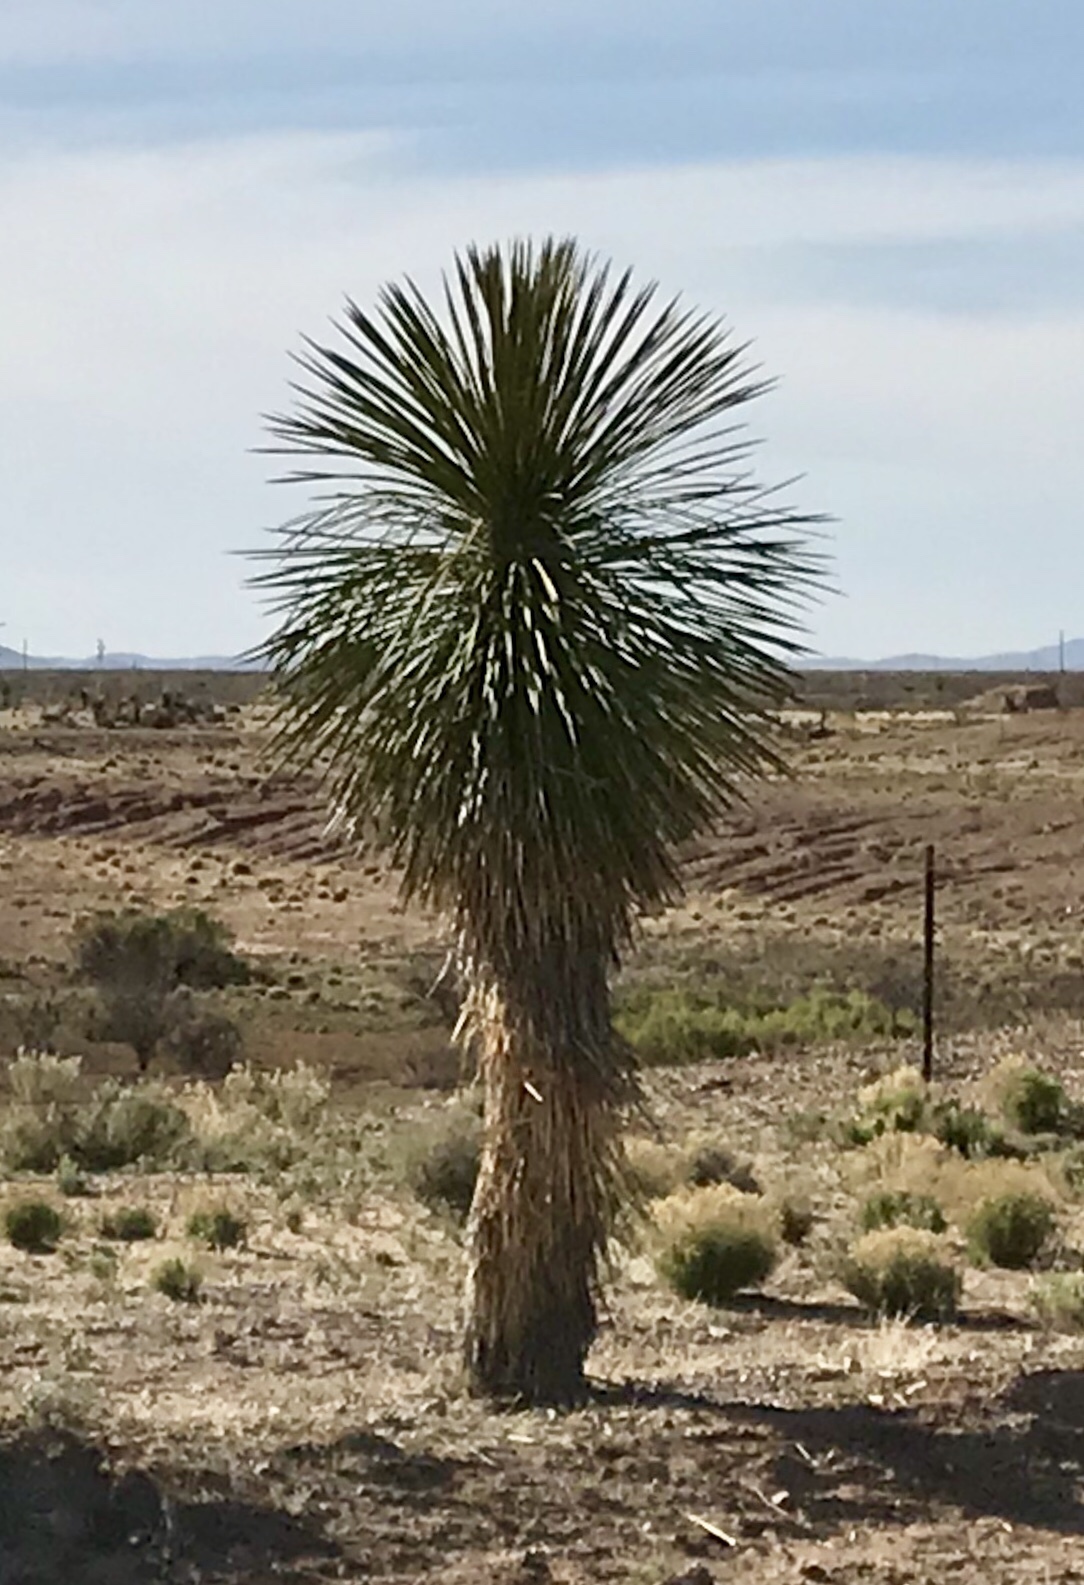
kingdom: Plantae
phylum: Tracheophyta
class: Liliopsida
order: Asparagales
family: Asparagaceae
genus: Yucca
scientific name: Yucca elata
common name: Palmella
